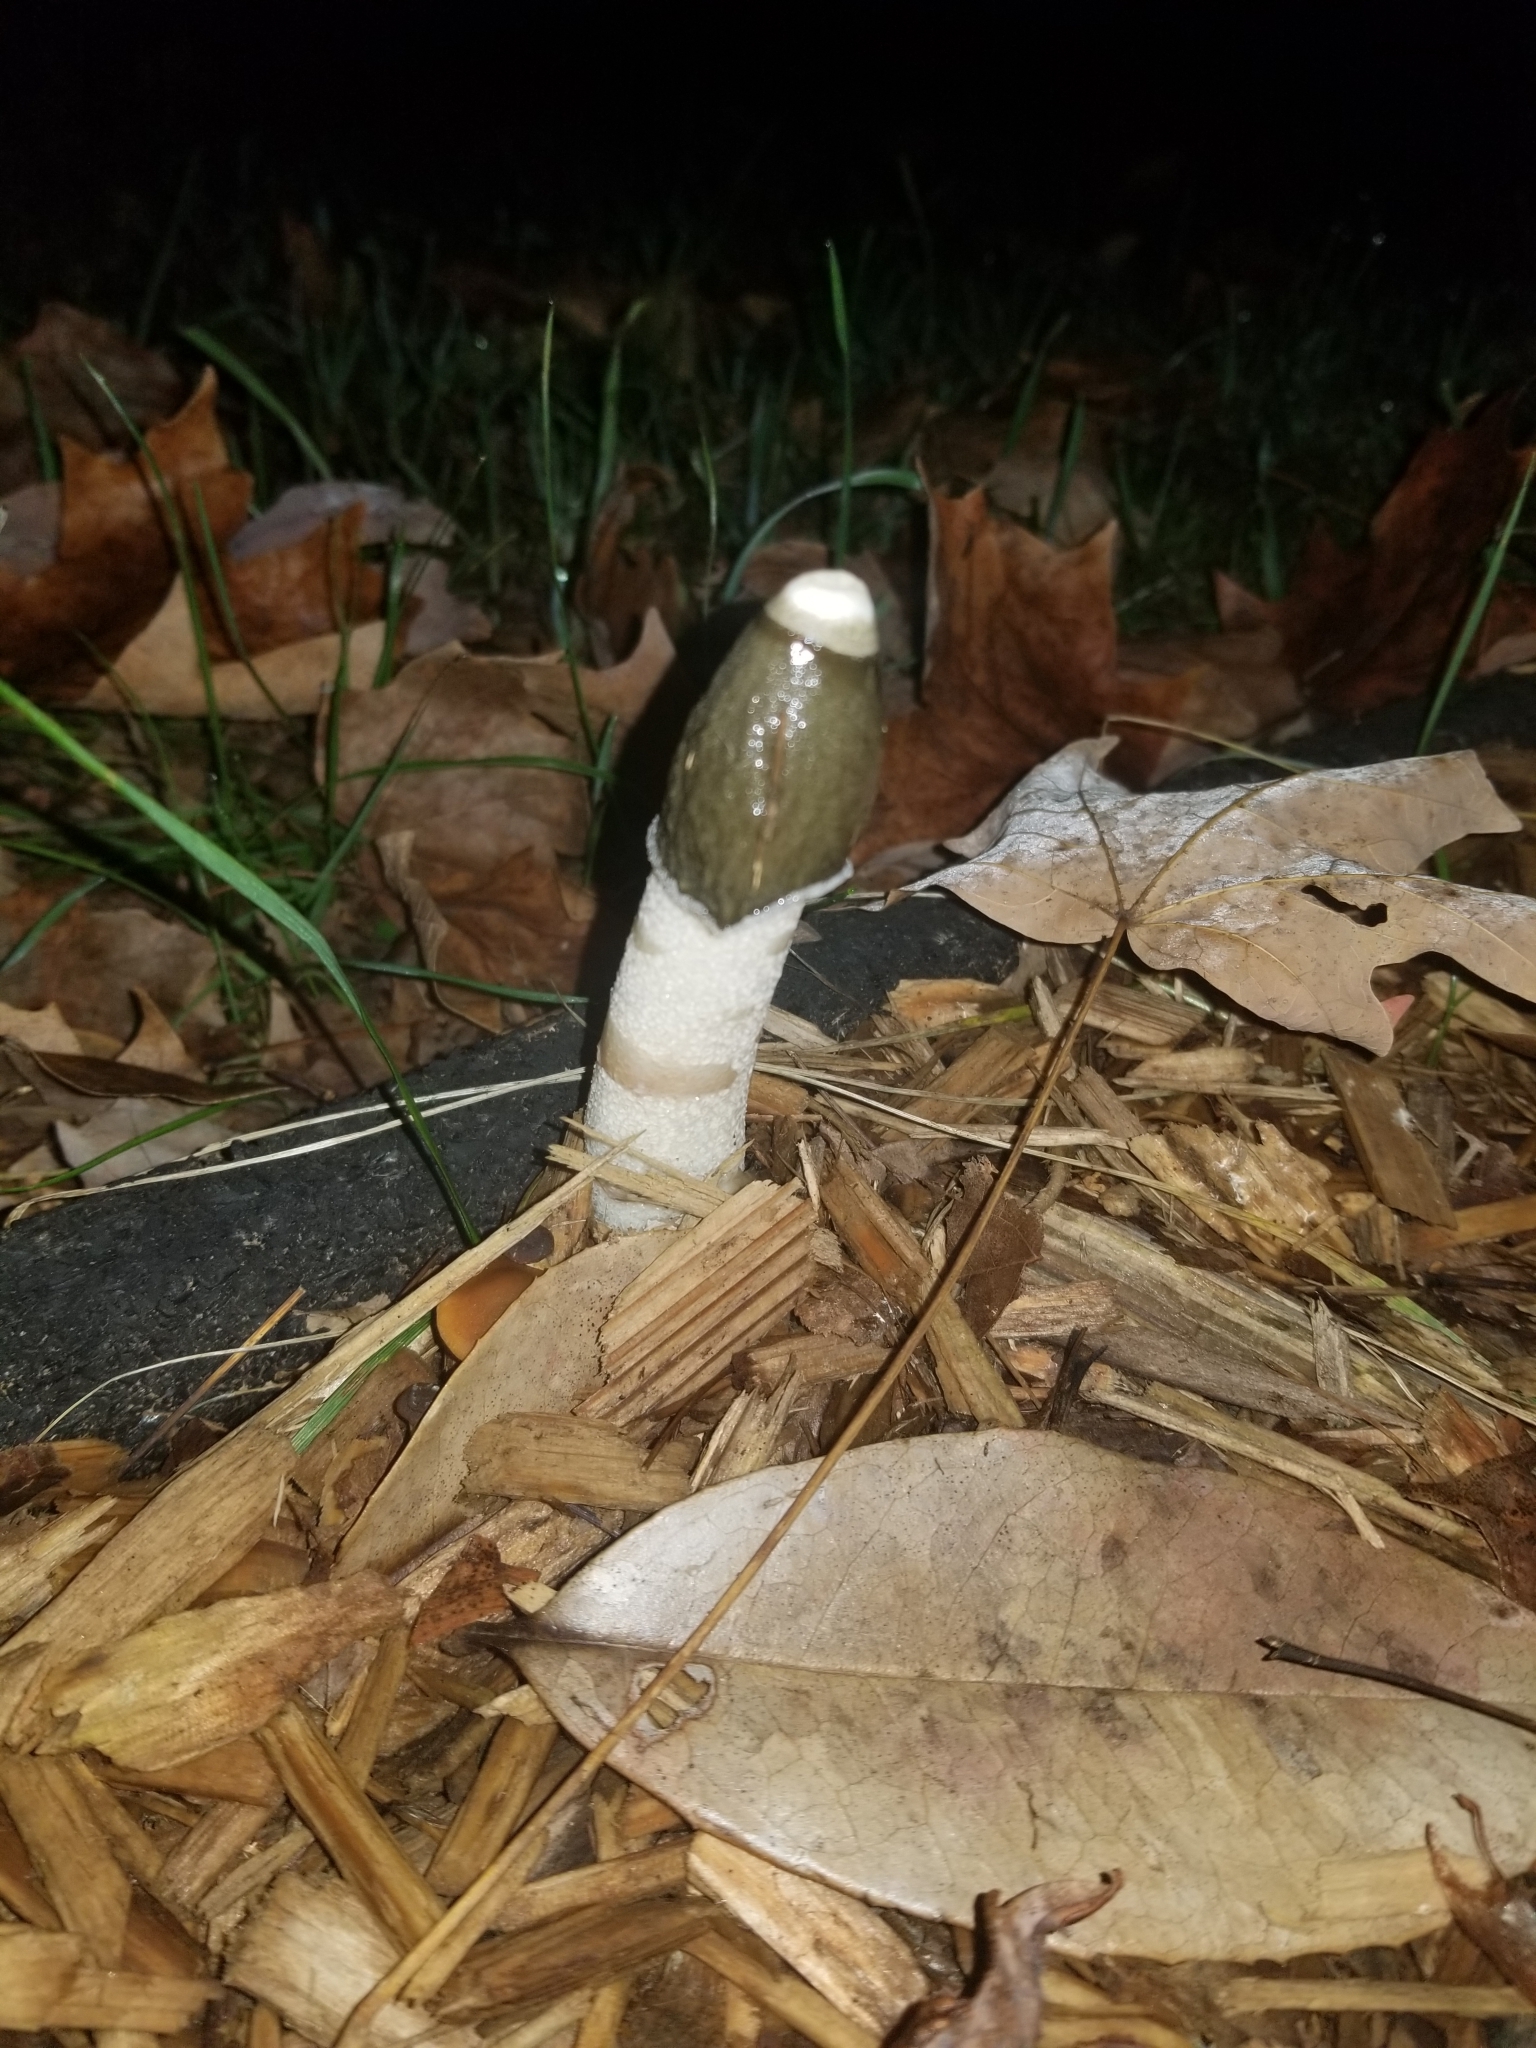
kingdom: Fungi
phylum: Basidiomycota
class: Agaricomycetes
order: Phallales
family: Phallaceae
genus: Phallus
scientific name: Phallus ravenelii
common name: Ravenel's stinkhorn
